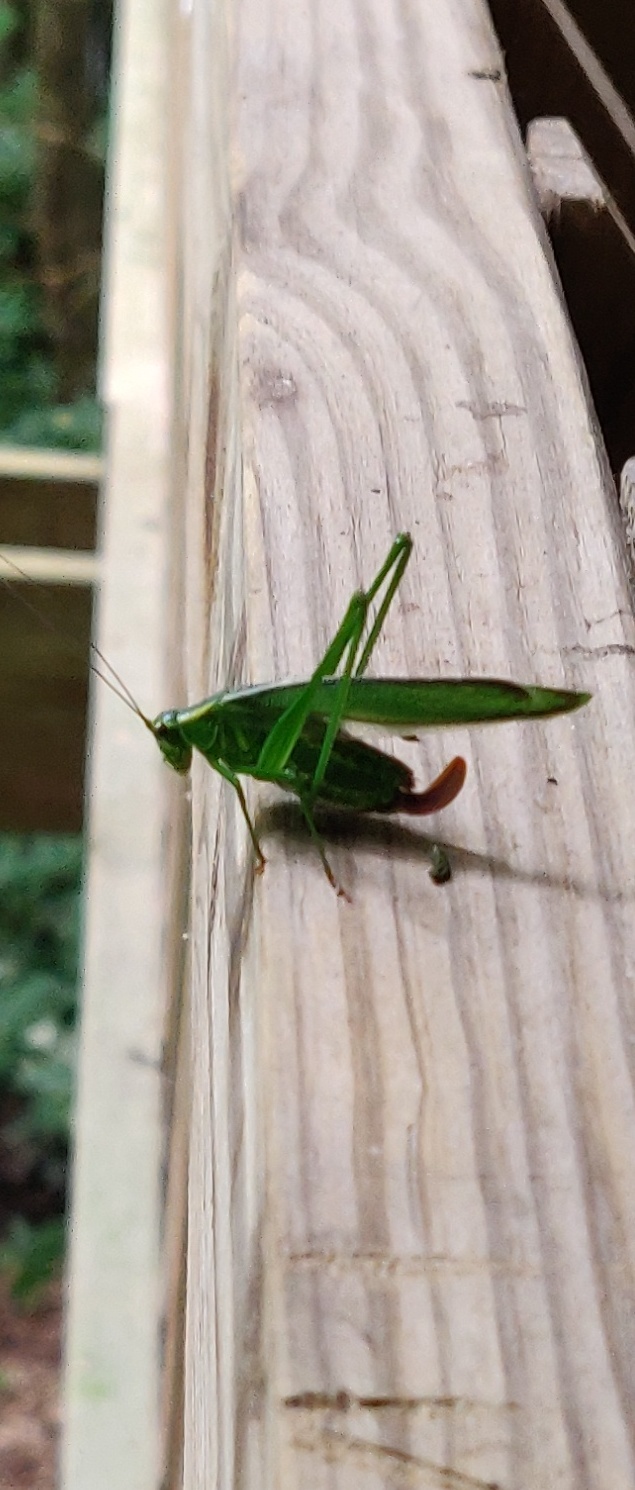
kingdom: Animalia
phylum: Arthropoda
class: Insecta
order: Orthoptera
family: Tettigoniidae
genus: Scudderia
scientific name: Scudderia fasciata
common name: Treetop bush katydid
